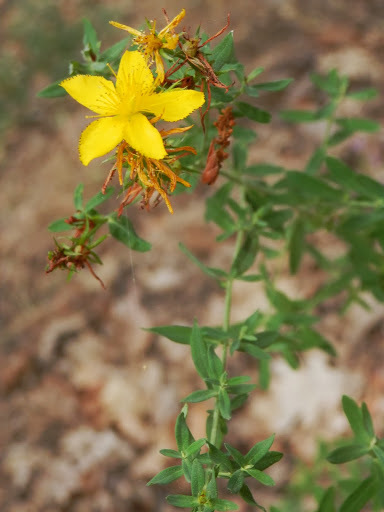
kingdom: Plantae
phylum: Tracheophyta
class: Magnoliopsida
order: Malpighiales
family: Hypericaceae
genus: Hypericum
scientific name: Hypericum concinnum
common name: Gold-wire
